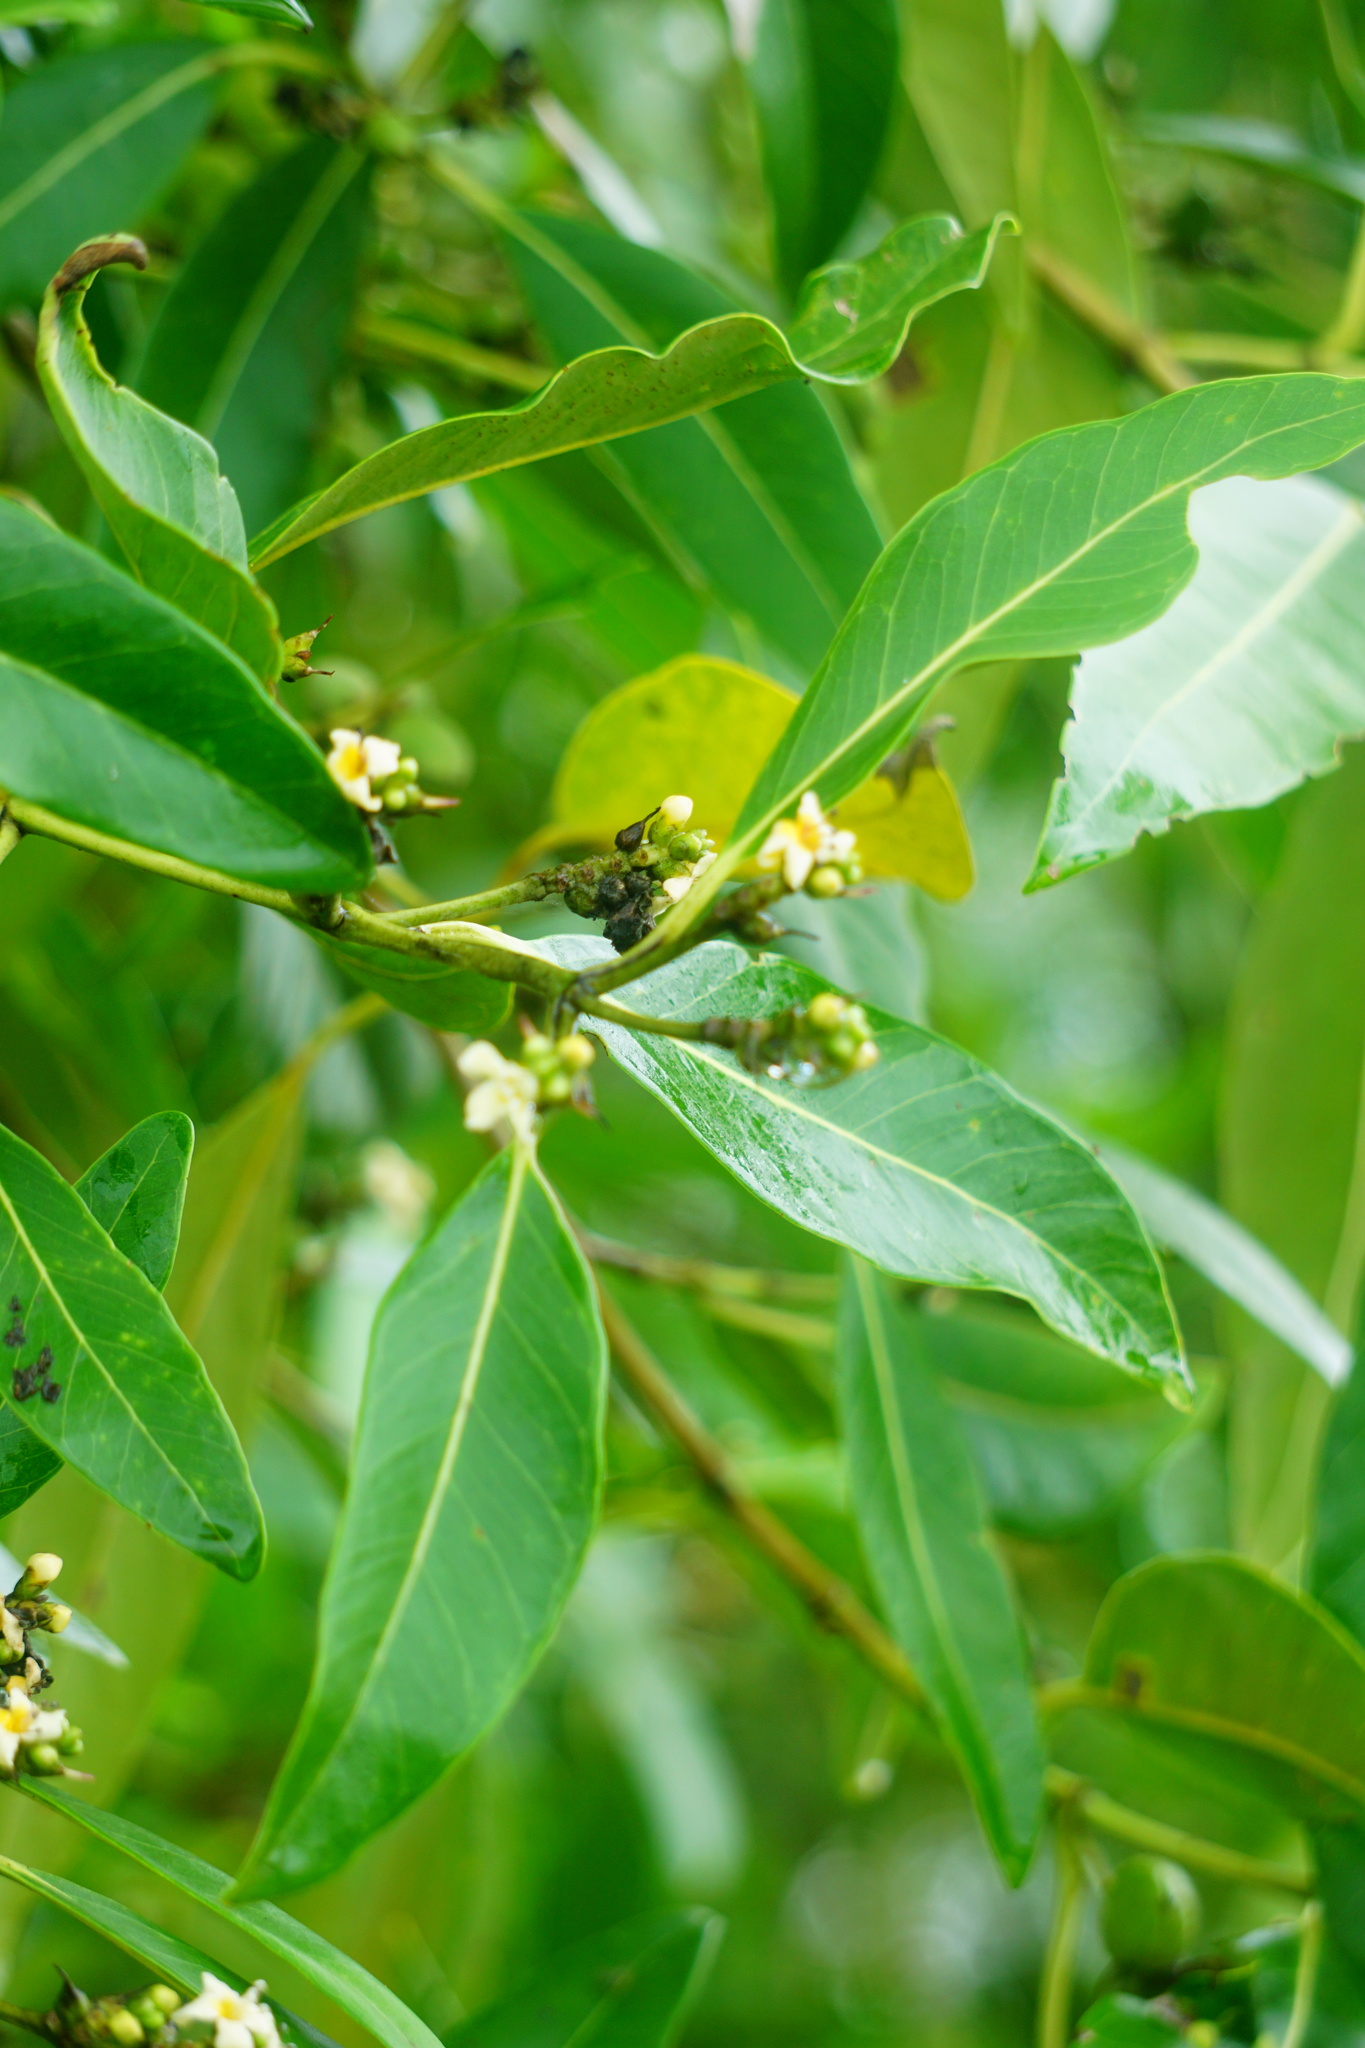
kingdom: Plantae
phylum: Tracheophyta
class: Liliopsida
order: Asparagales
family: Amaryllidaceae
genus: Crinum
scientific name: Crinum americanum
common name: Florida swamp-lily
